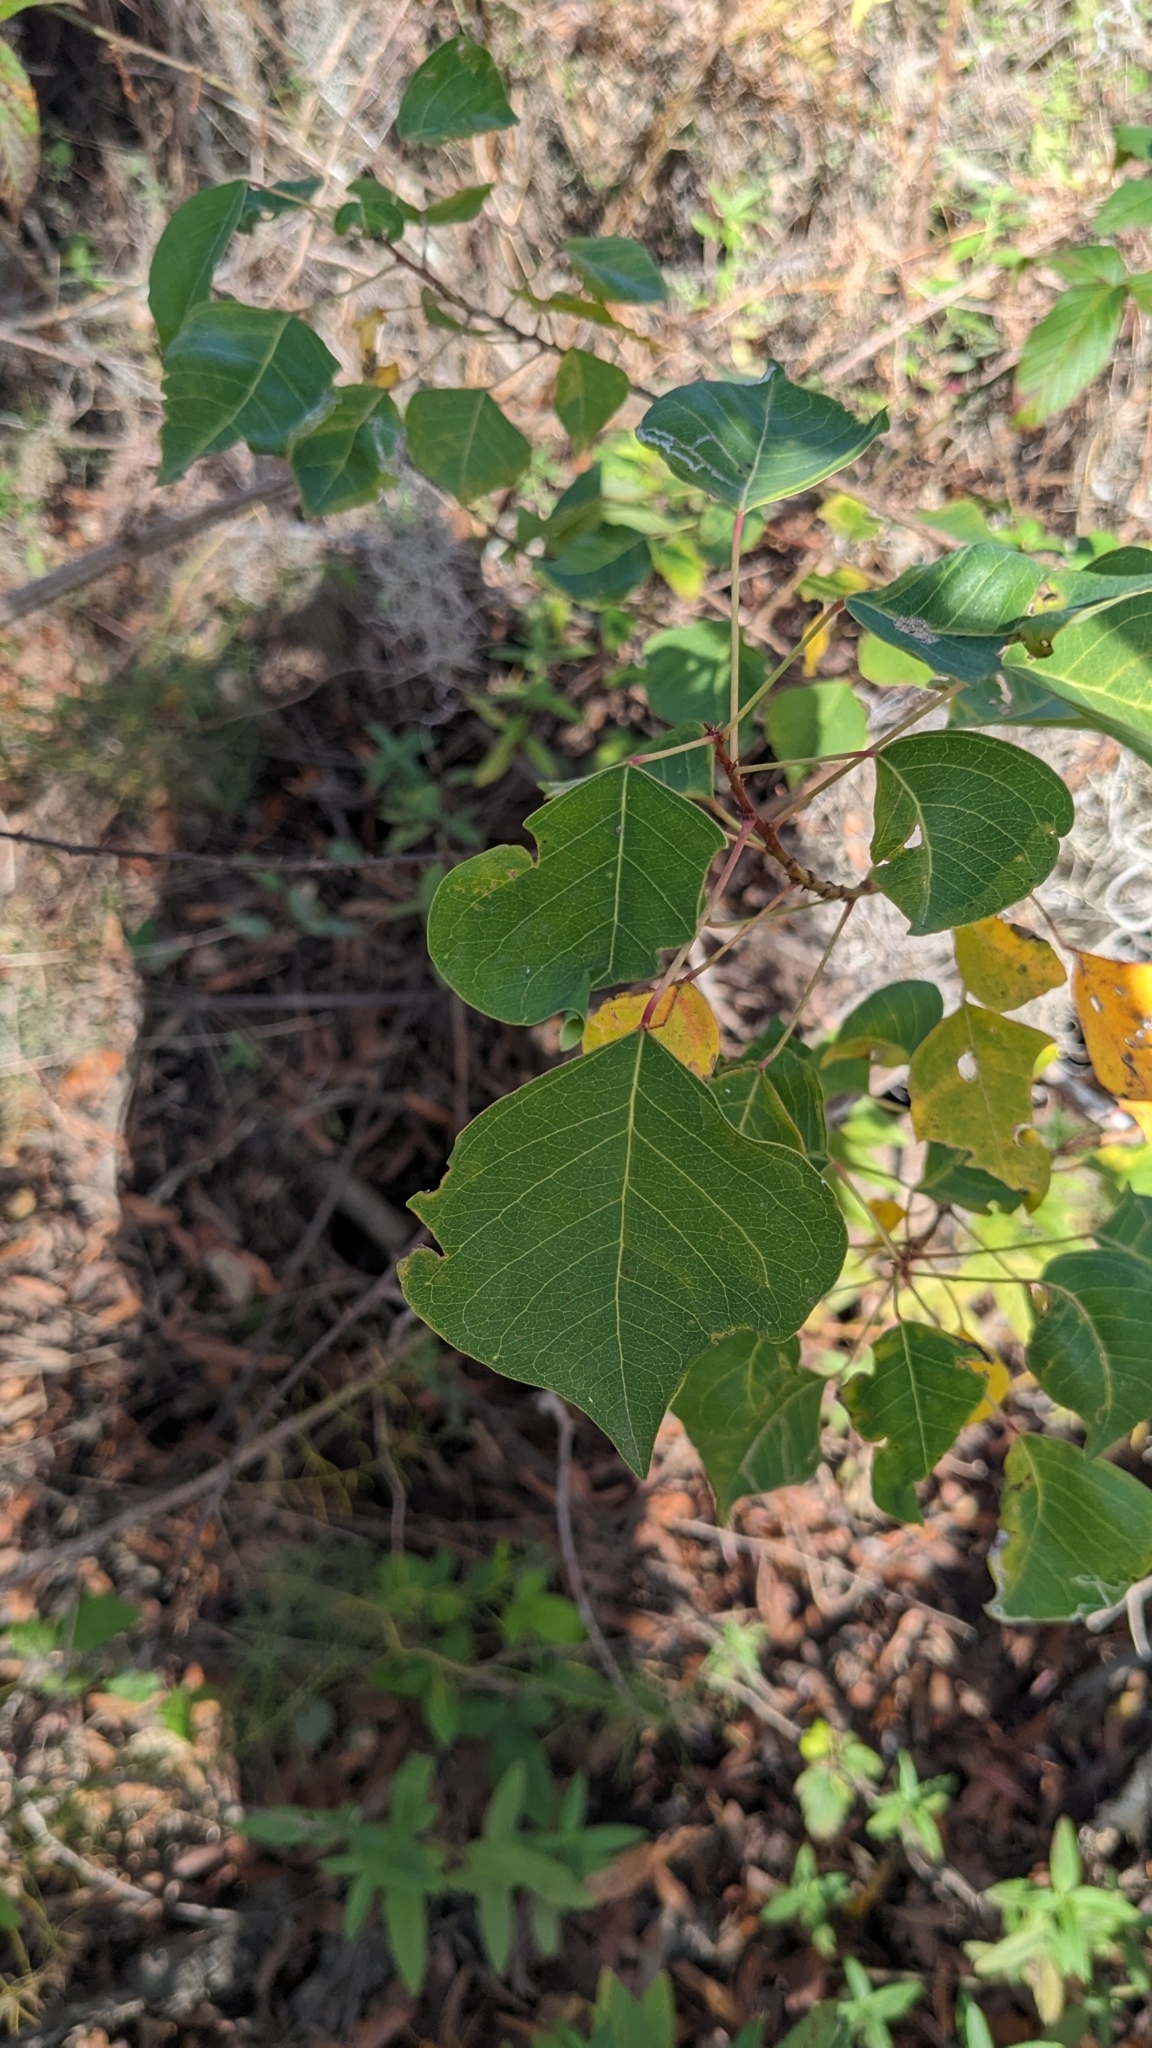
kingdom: Plantae
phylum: Tracheophyta
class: Magnoliopsida
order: Malpighiales
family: Euphorbiaceae
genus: Triadica
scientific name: Triadica sebifera
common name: Chinese tallow
